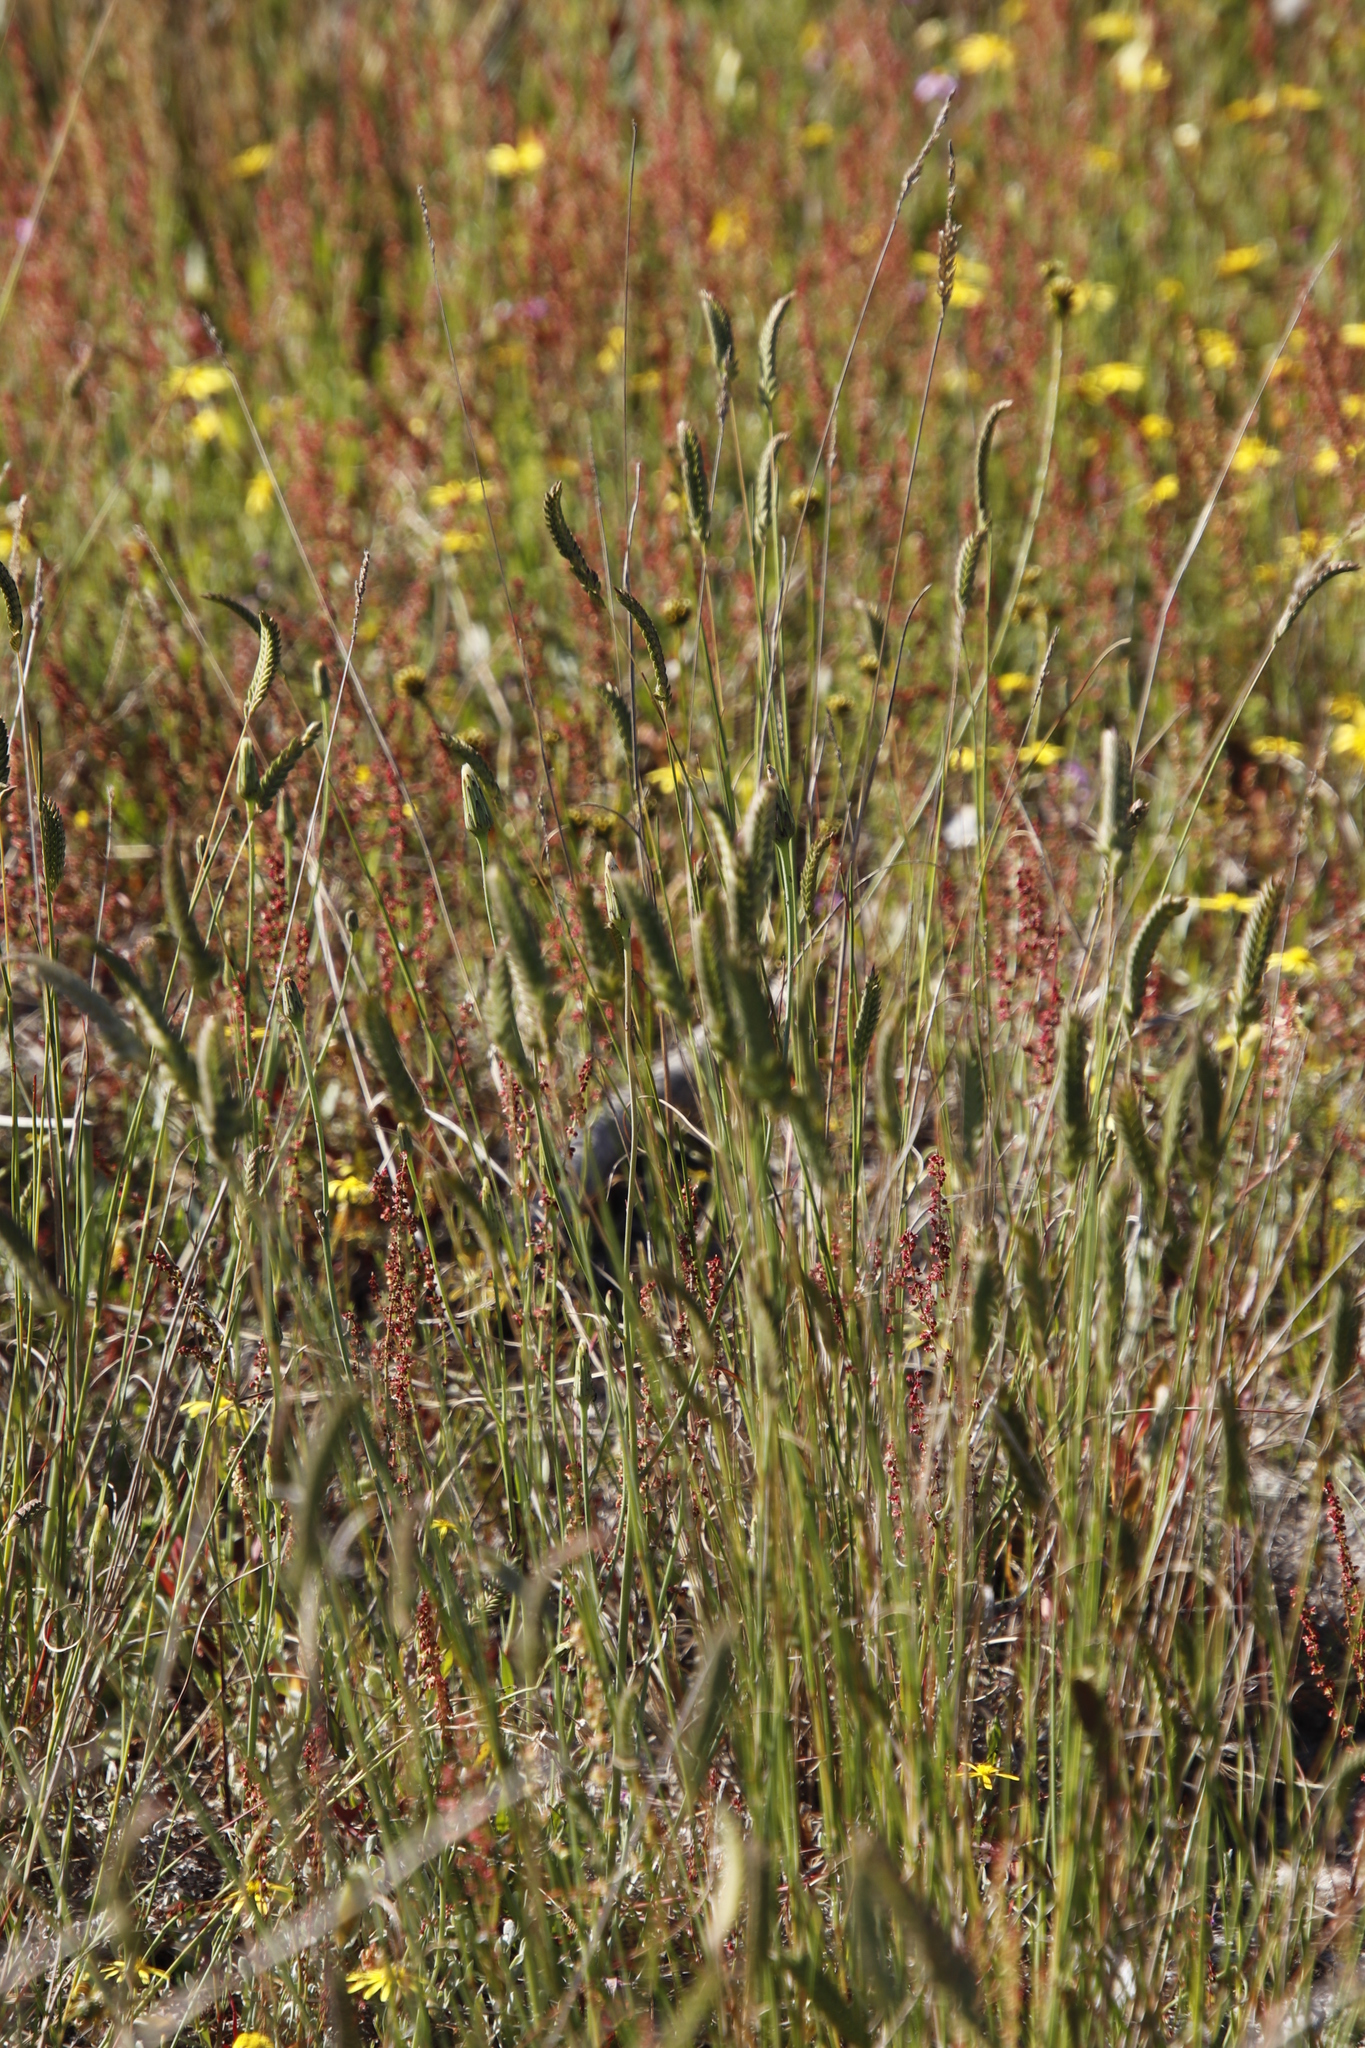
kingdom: Plantae
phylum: Tracheophyta
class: Liliopsida
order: Poales
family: Poaceae
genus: Tribolium
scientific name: Tribolium uniolae
